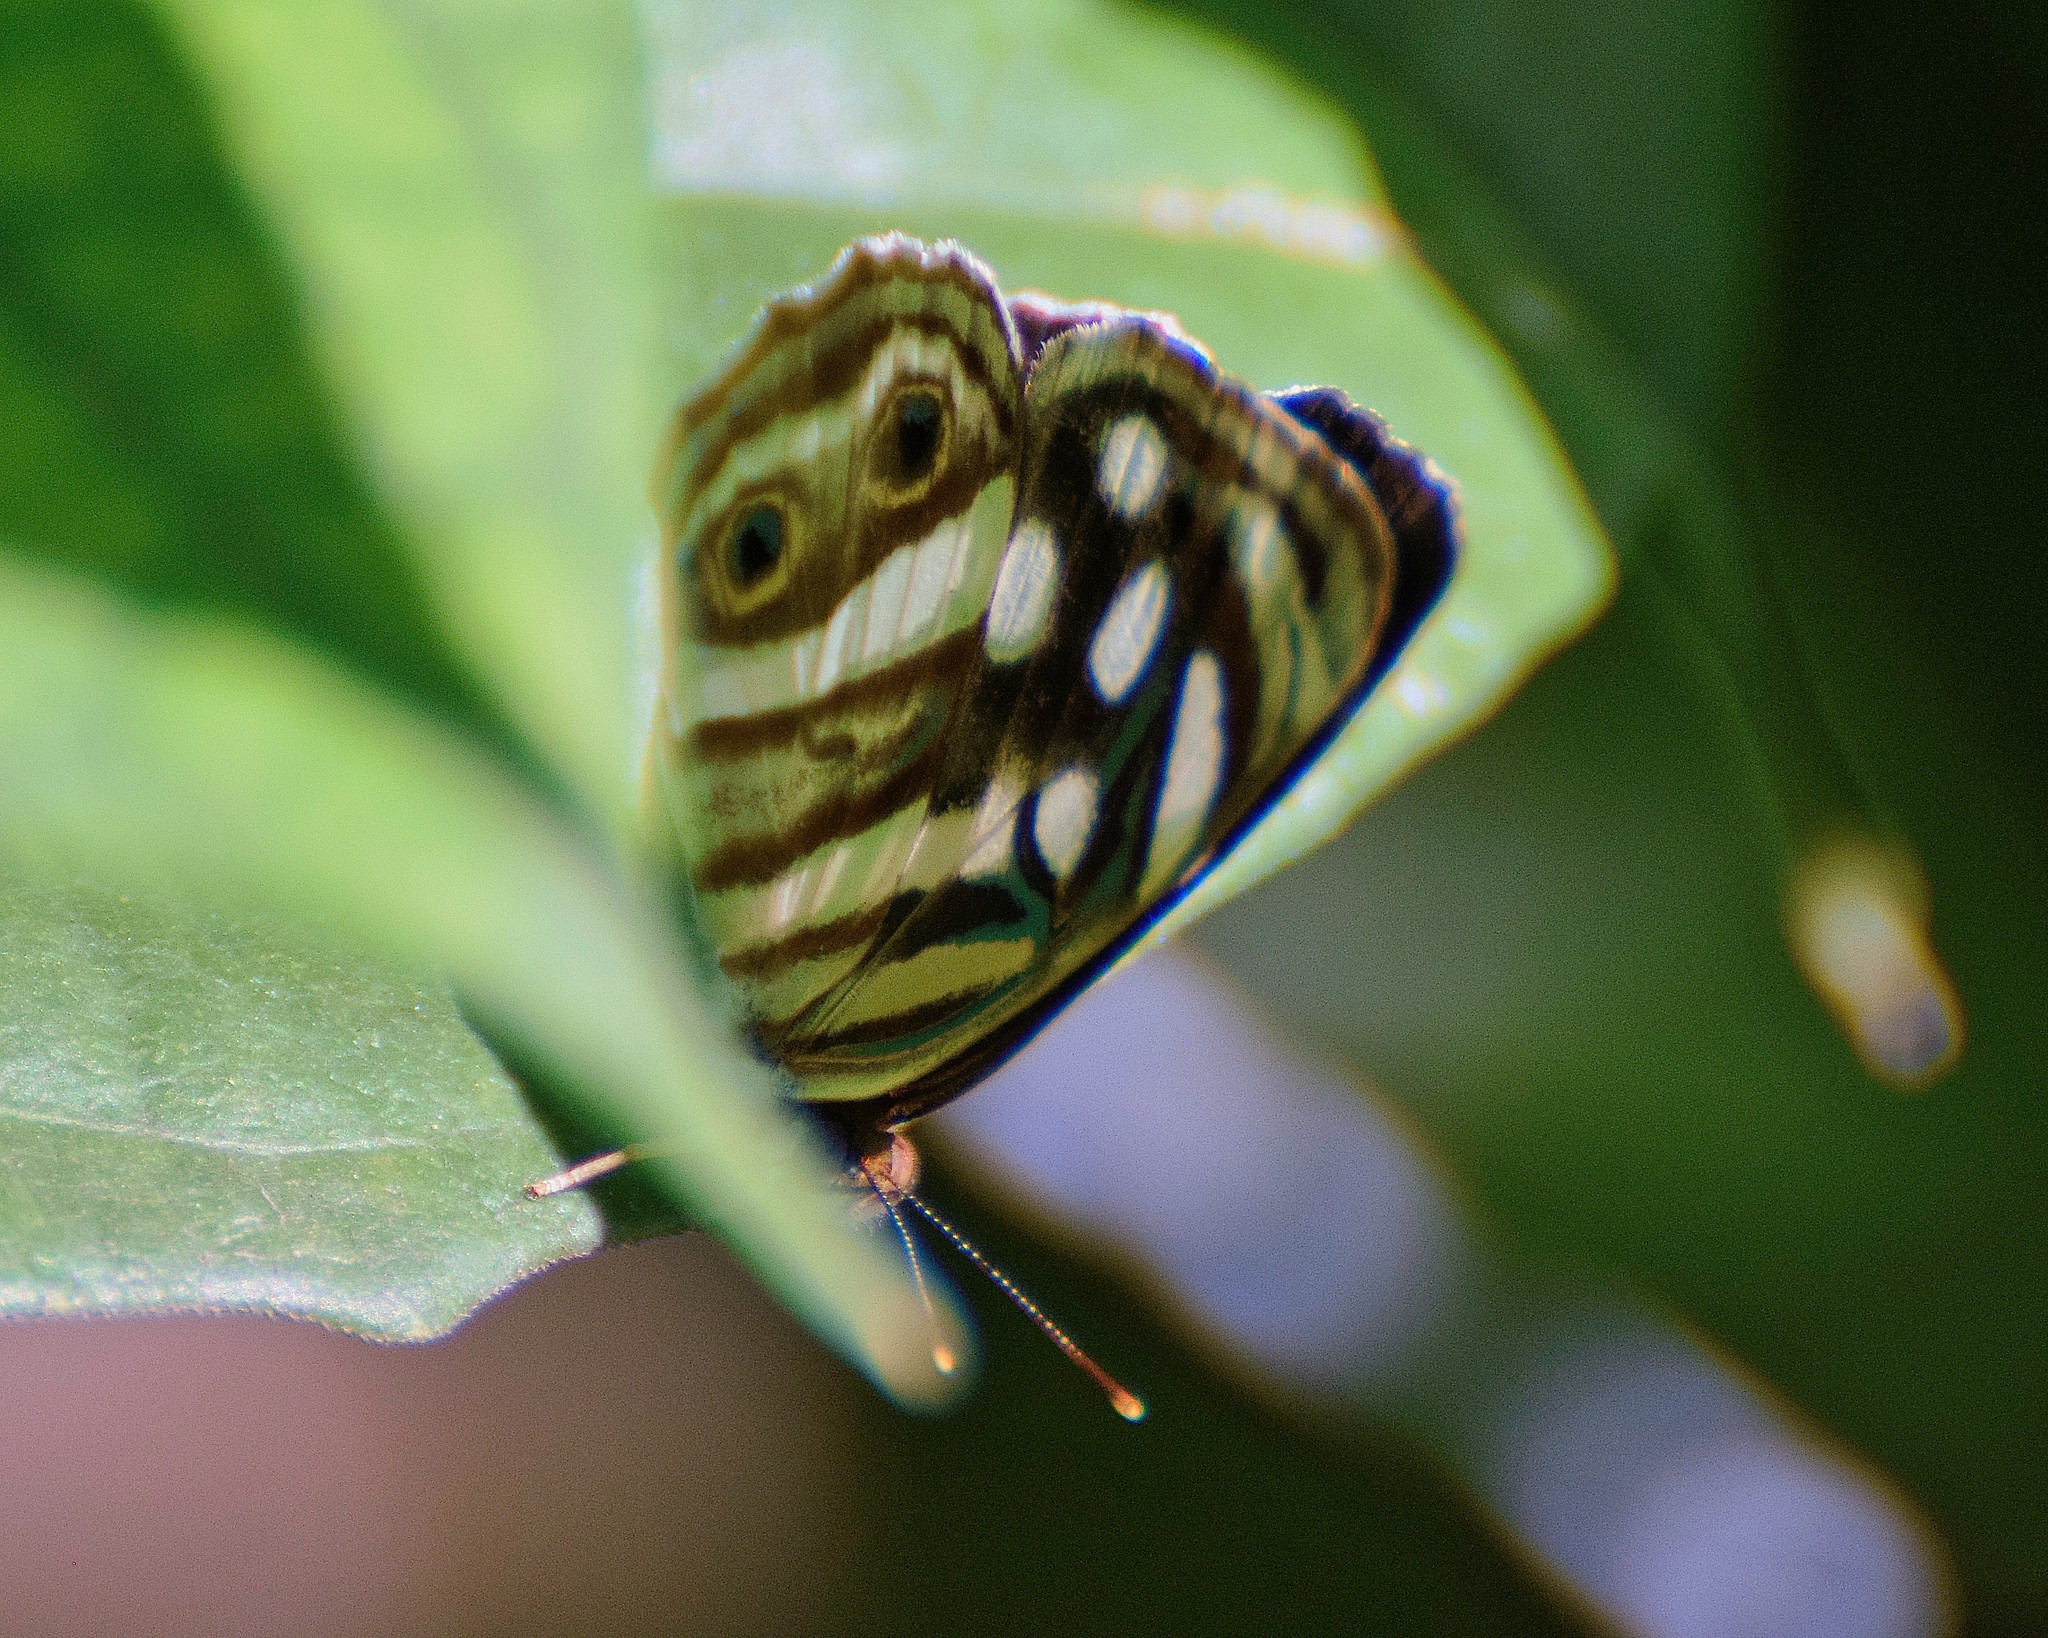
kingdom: Animalia
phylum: Arthropoda
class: Insecta
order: Lepidoptera
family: Nymphalidae
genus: Dynamine
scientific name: Dynamine mylitta
